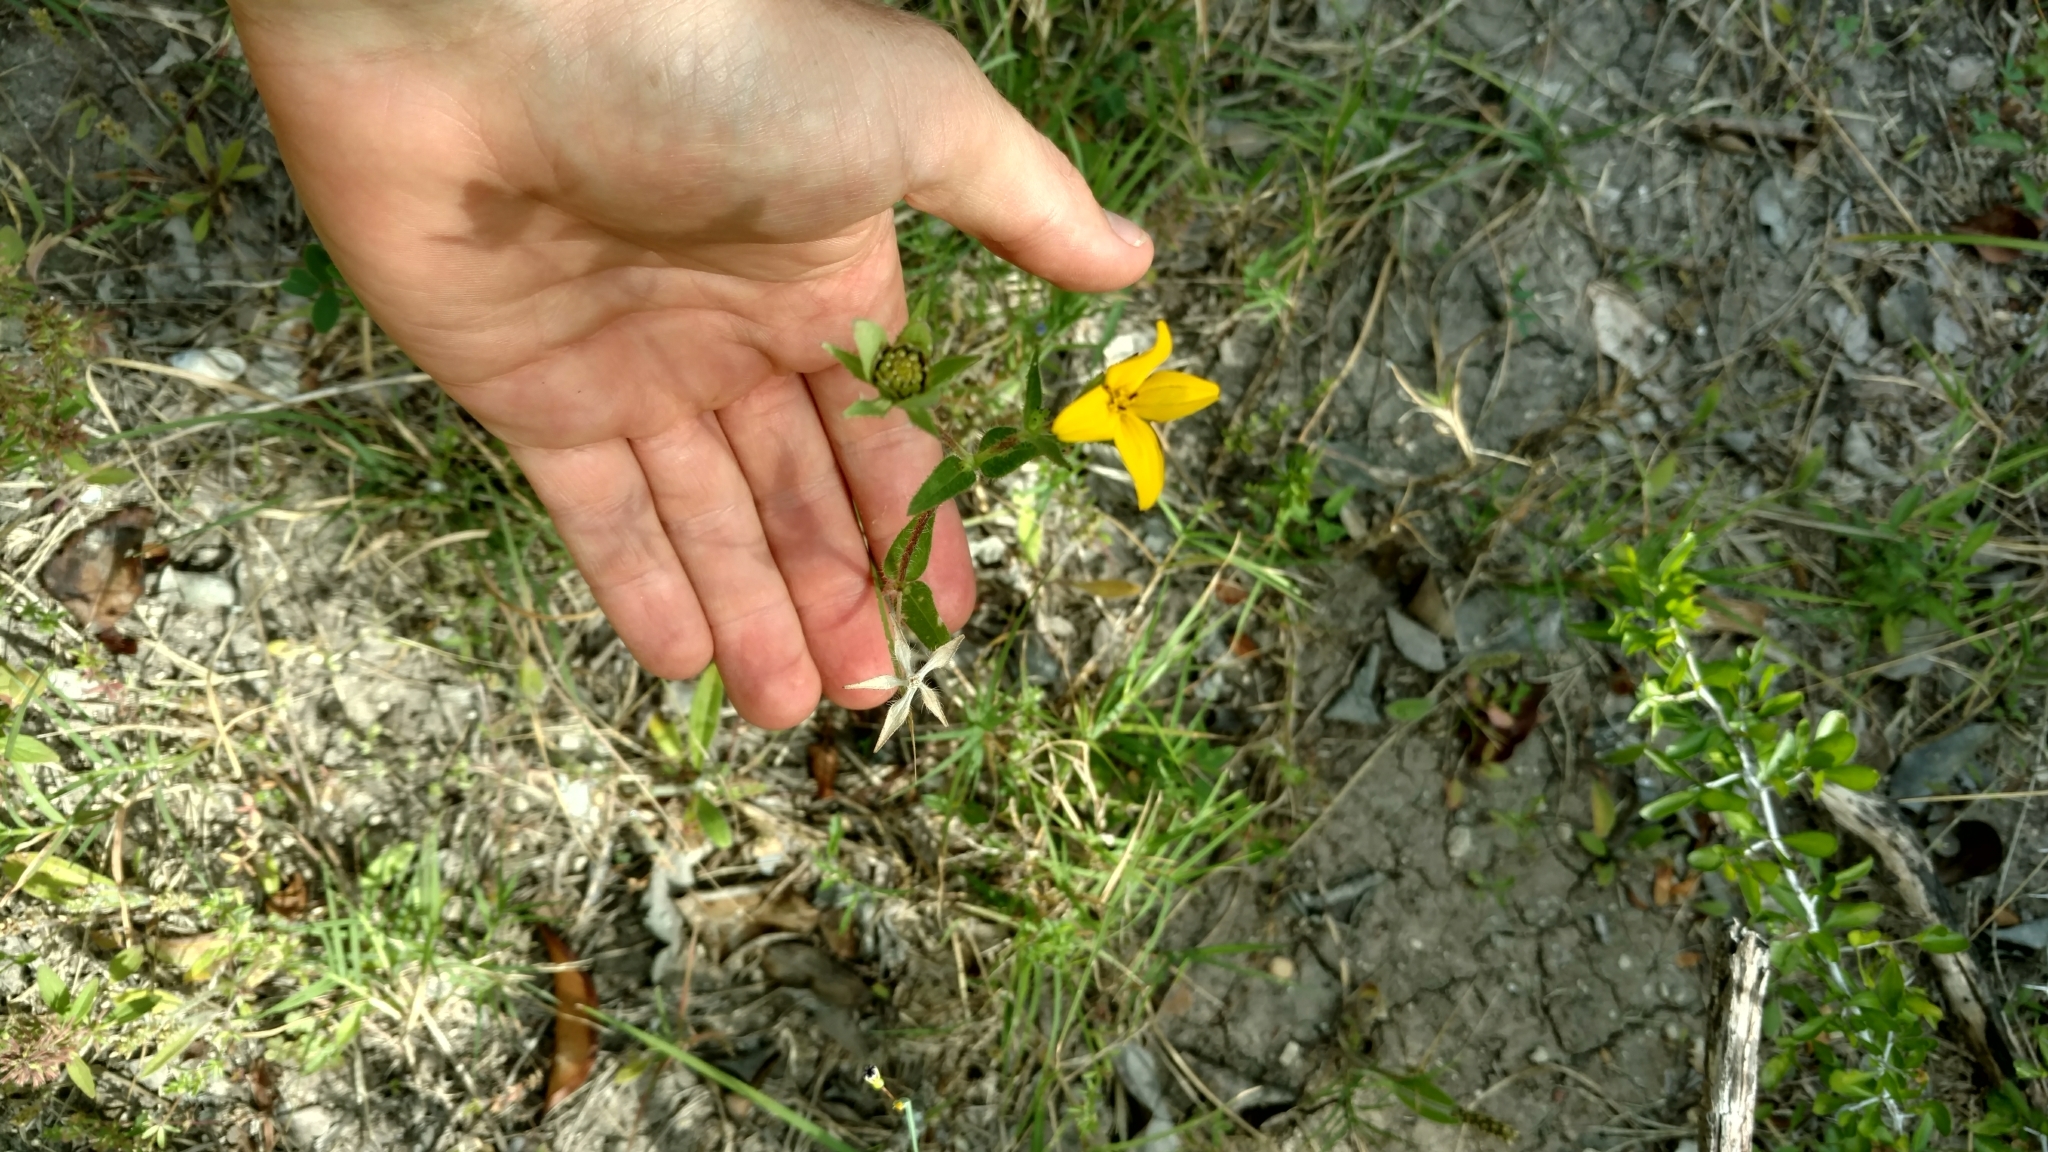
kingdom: Plantae
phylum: Tracheophyta
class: Magnoliopsida
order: Asterales
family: Asteraceae
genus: Lindheimera
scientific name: Lindheimera texana
